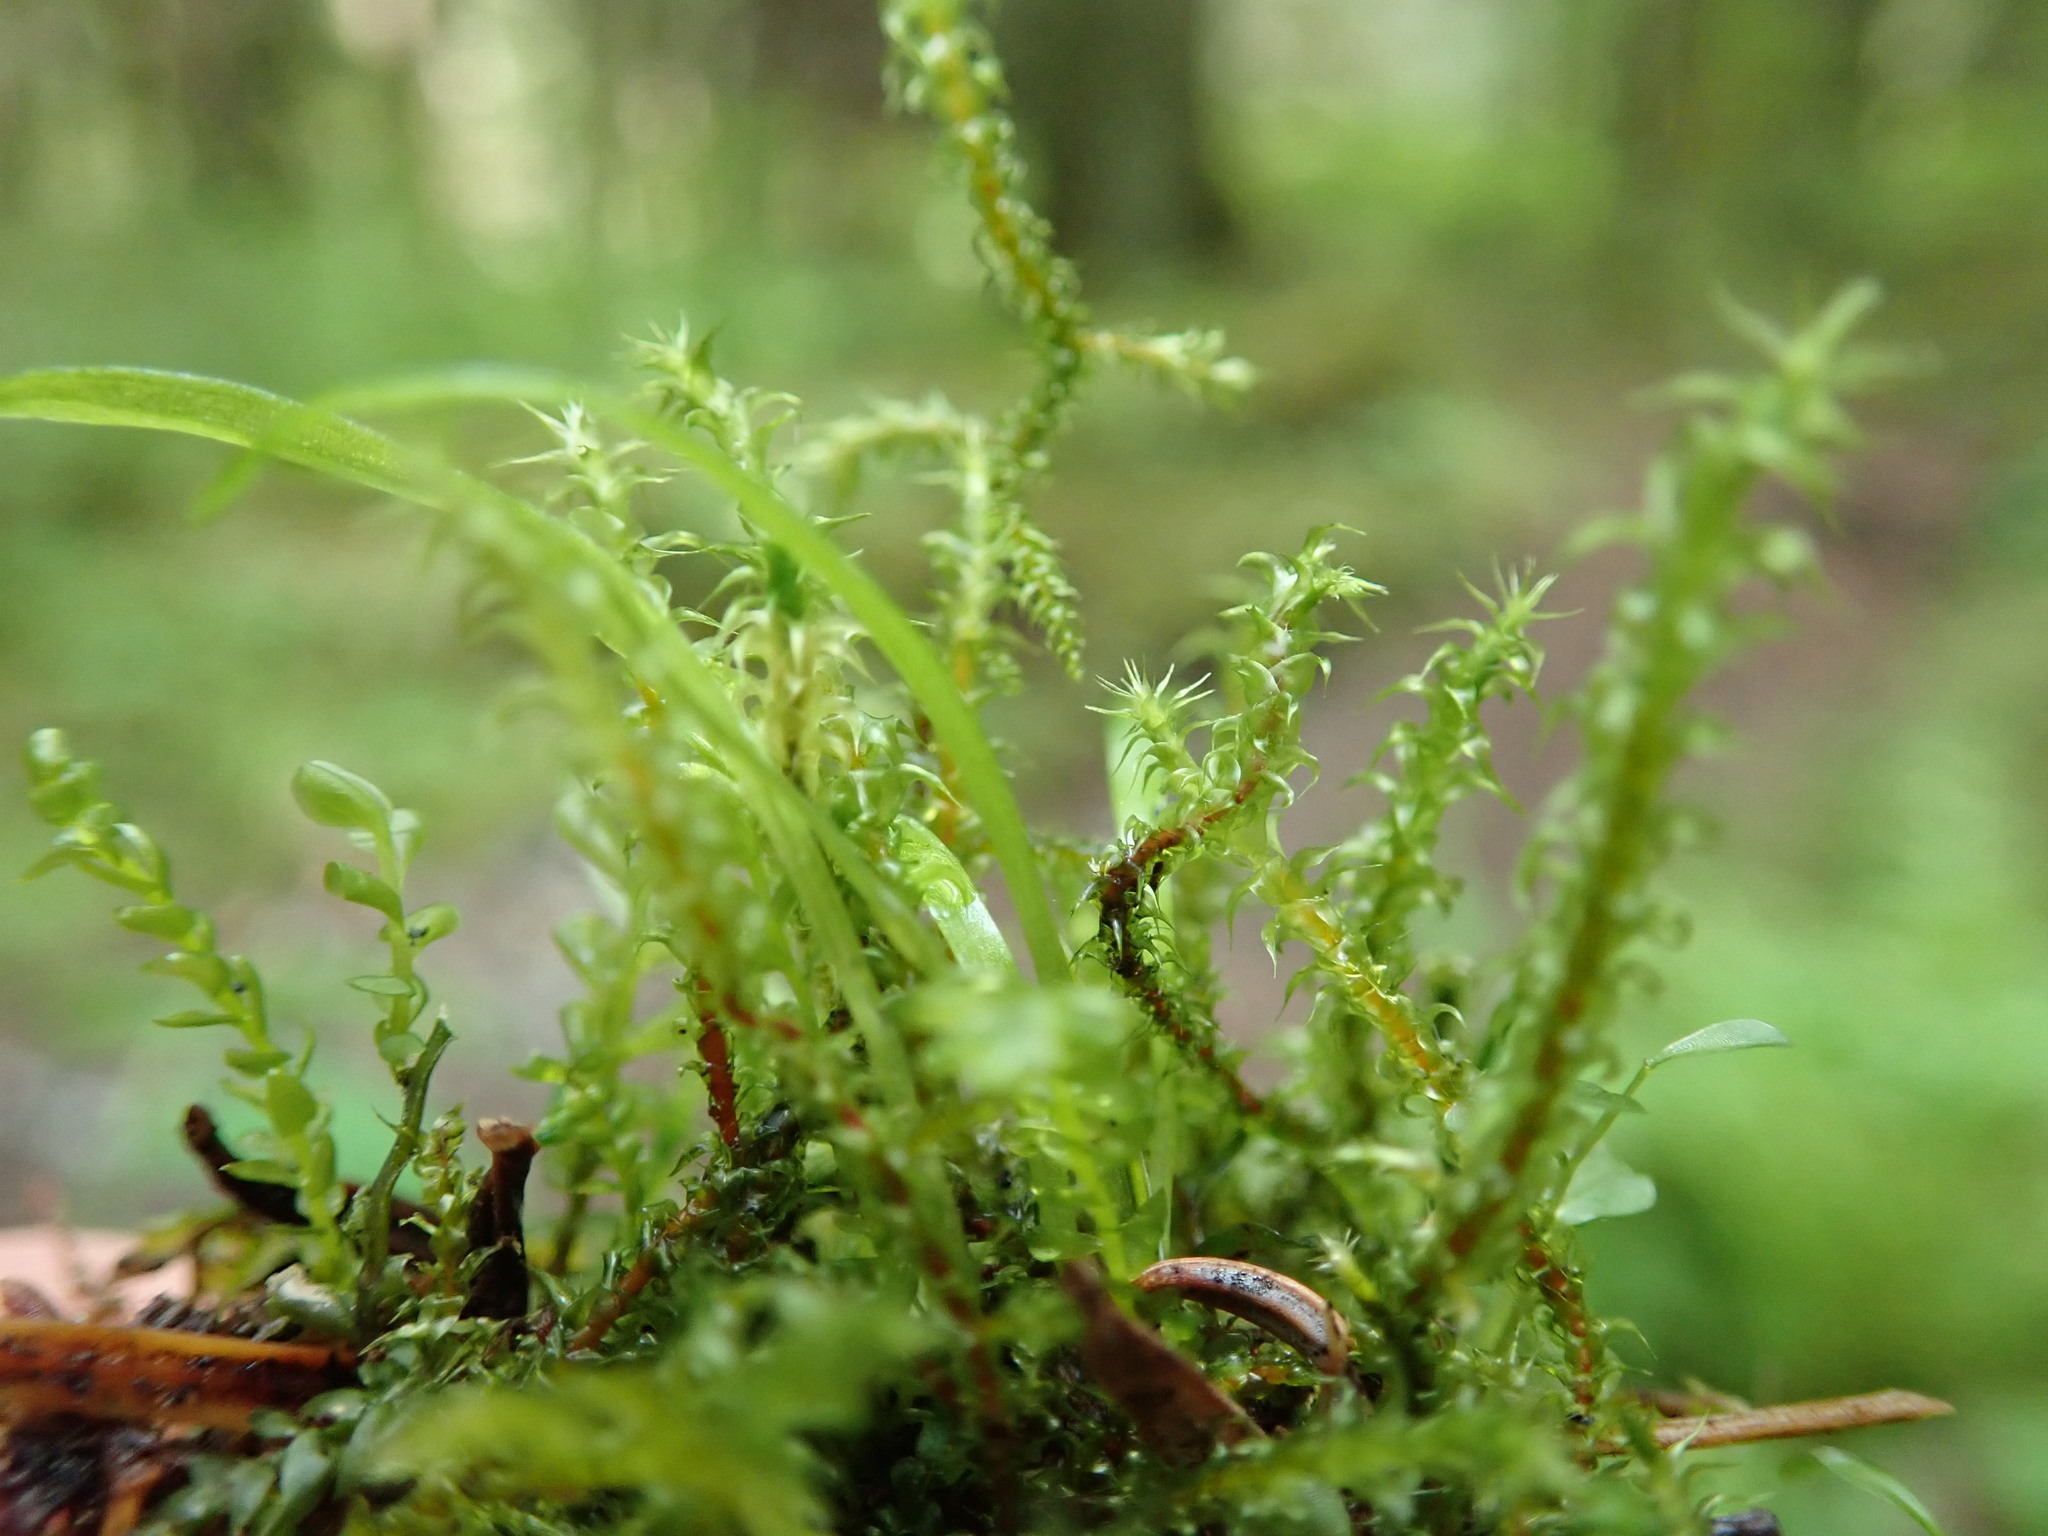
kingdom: Plantae
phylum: Bryophyta
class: Bryopsida
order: Hypnales
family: Hylocomiaceae
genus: Rhytidiadelphus
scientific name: Rhytidiadelphus squarrosus
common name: Springy turf-moss
